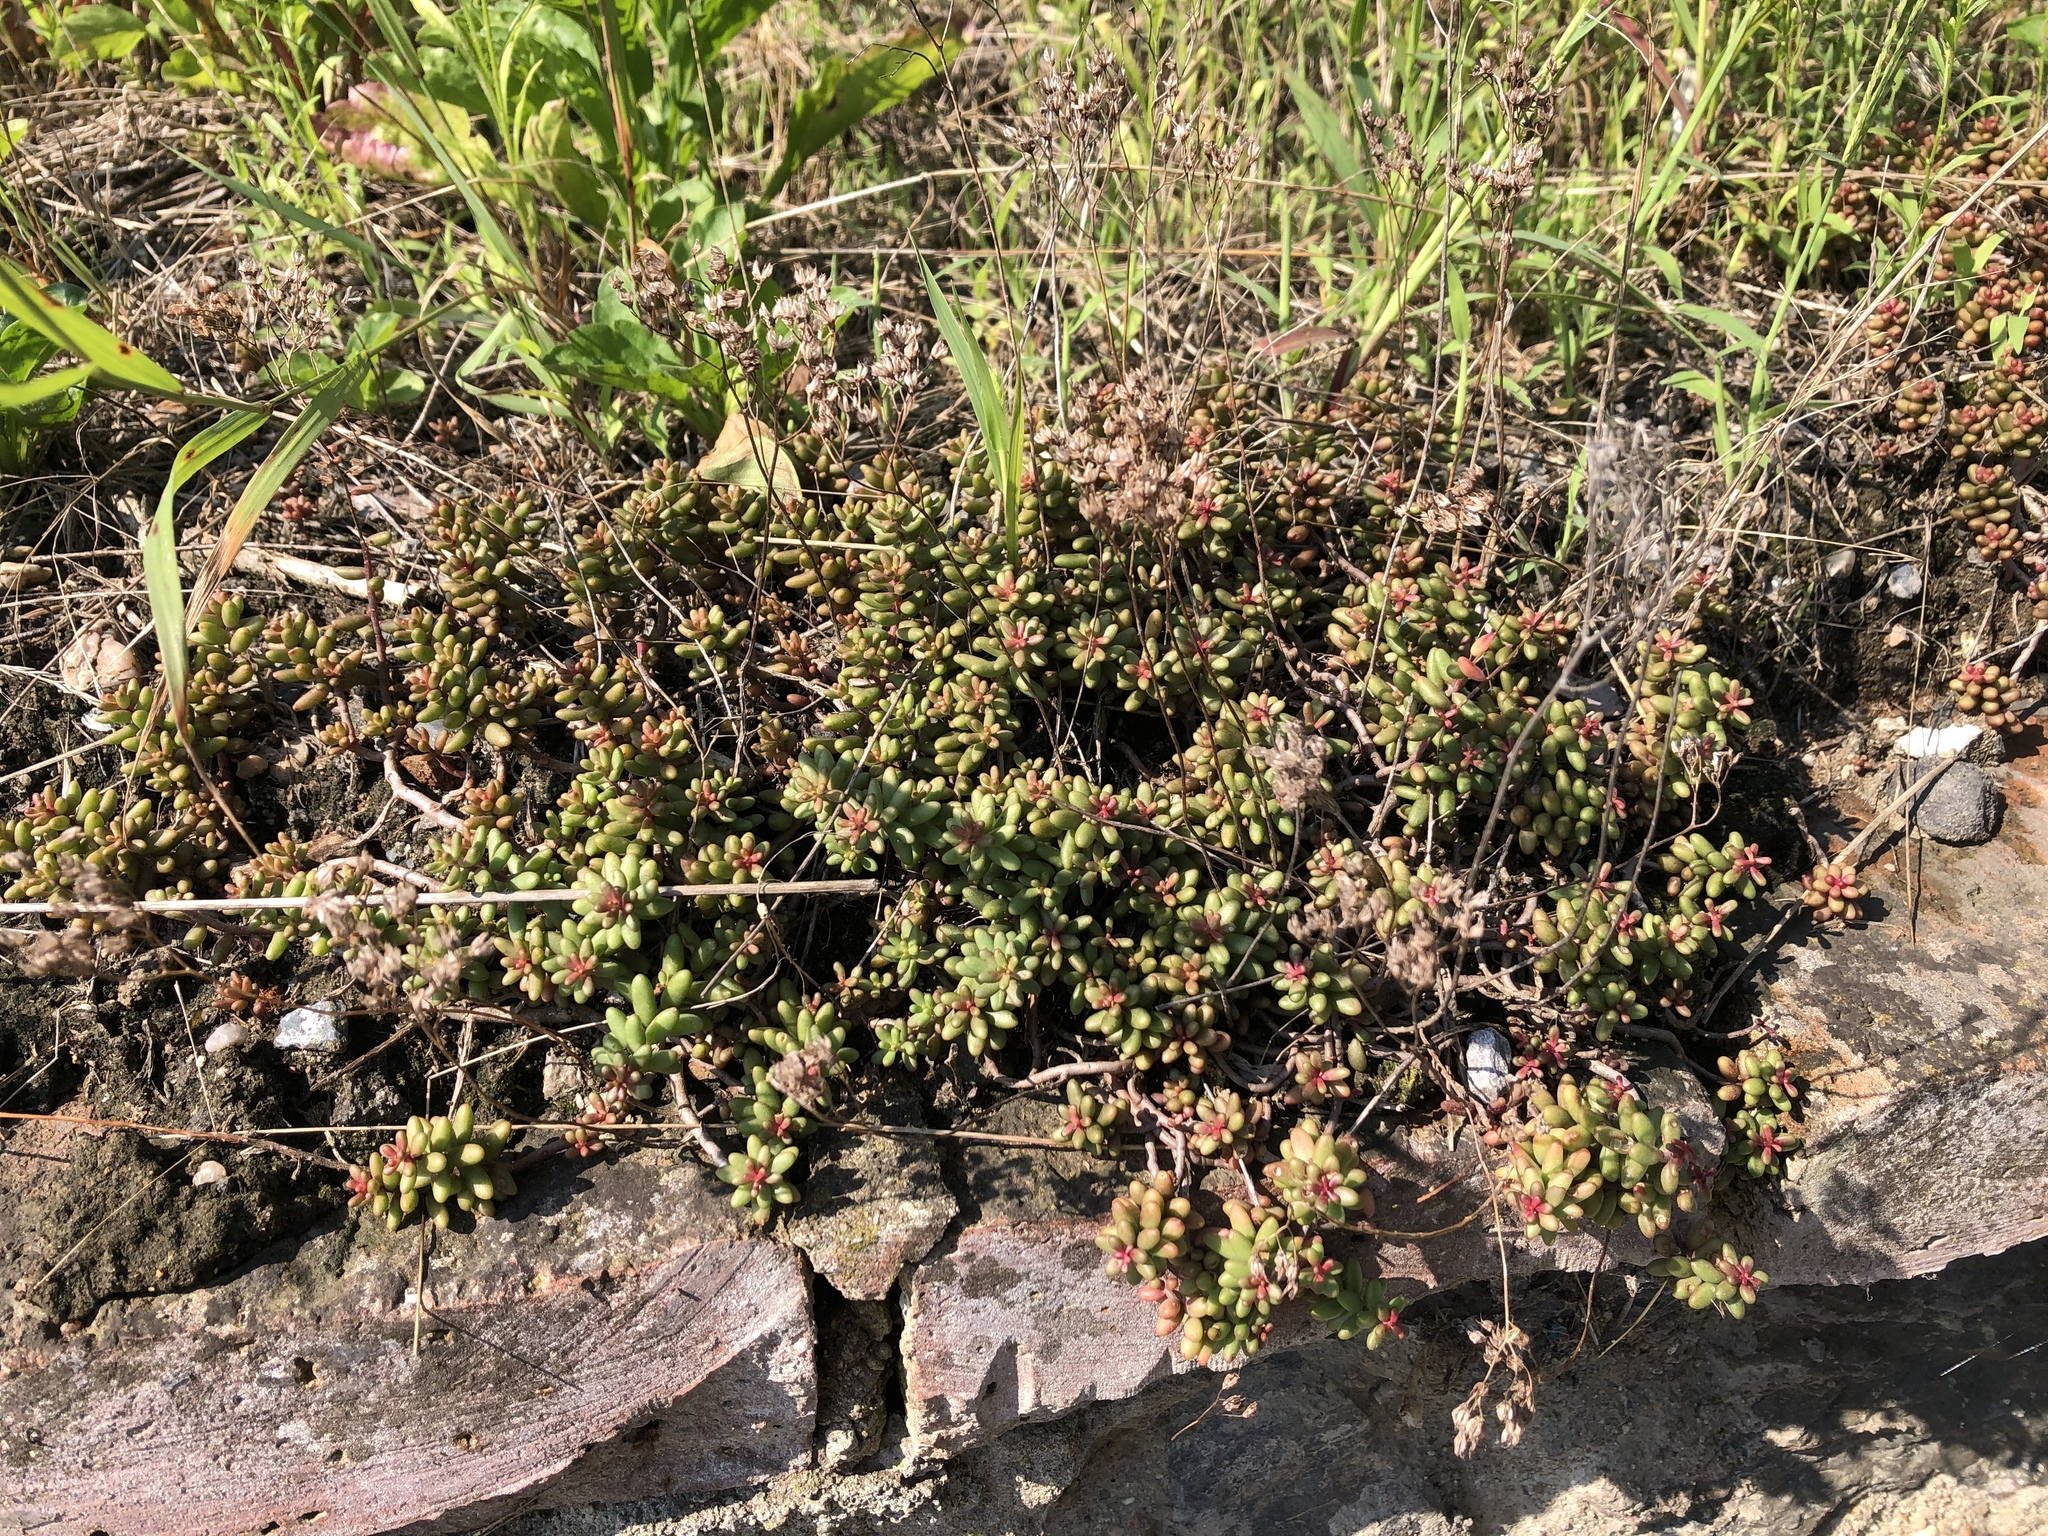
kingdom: Plantae
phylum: Tracheophyta
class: Magnoliopsida
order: Saxifragales
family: Crassulaceae
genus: Sedum
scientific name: Sedum album
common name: White stonecrop
